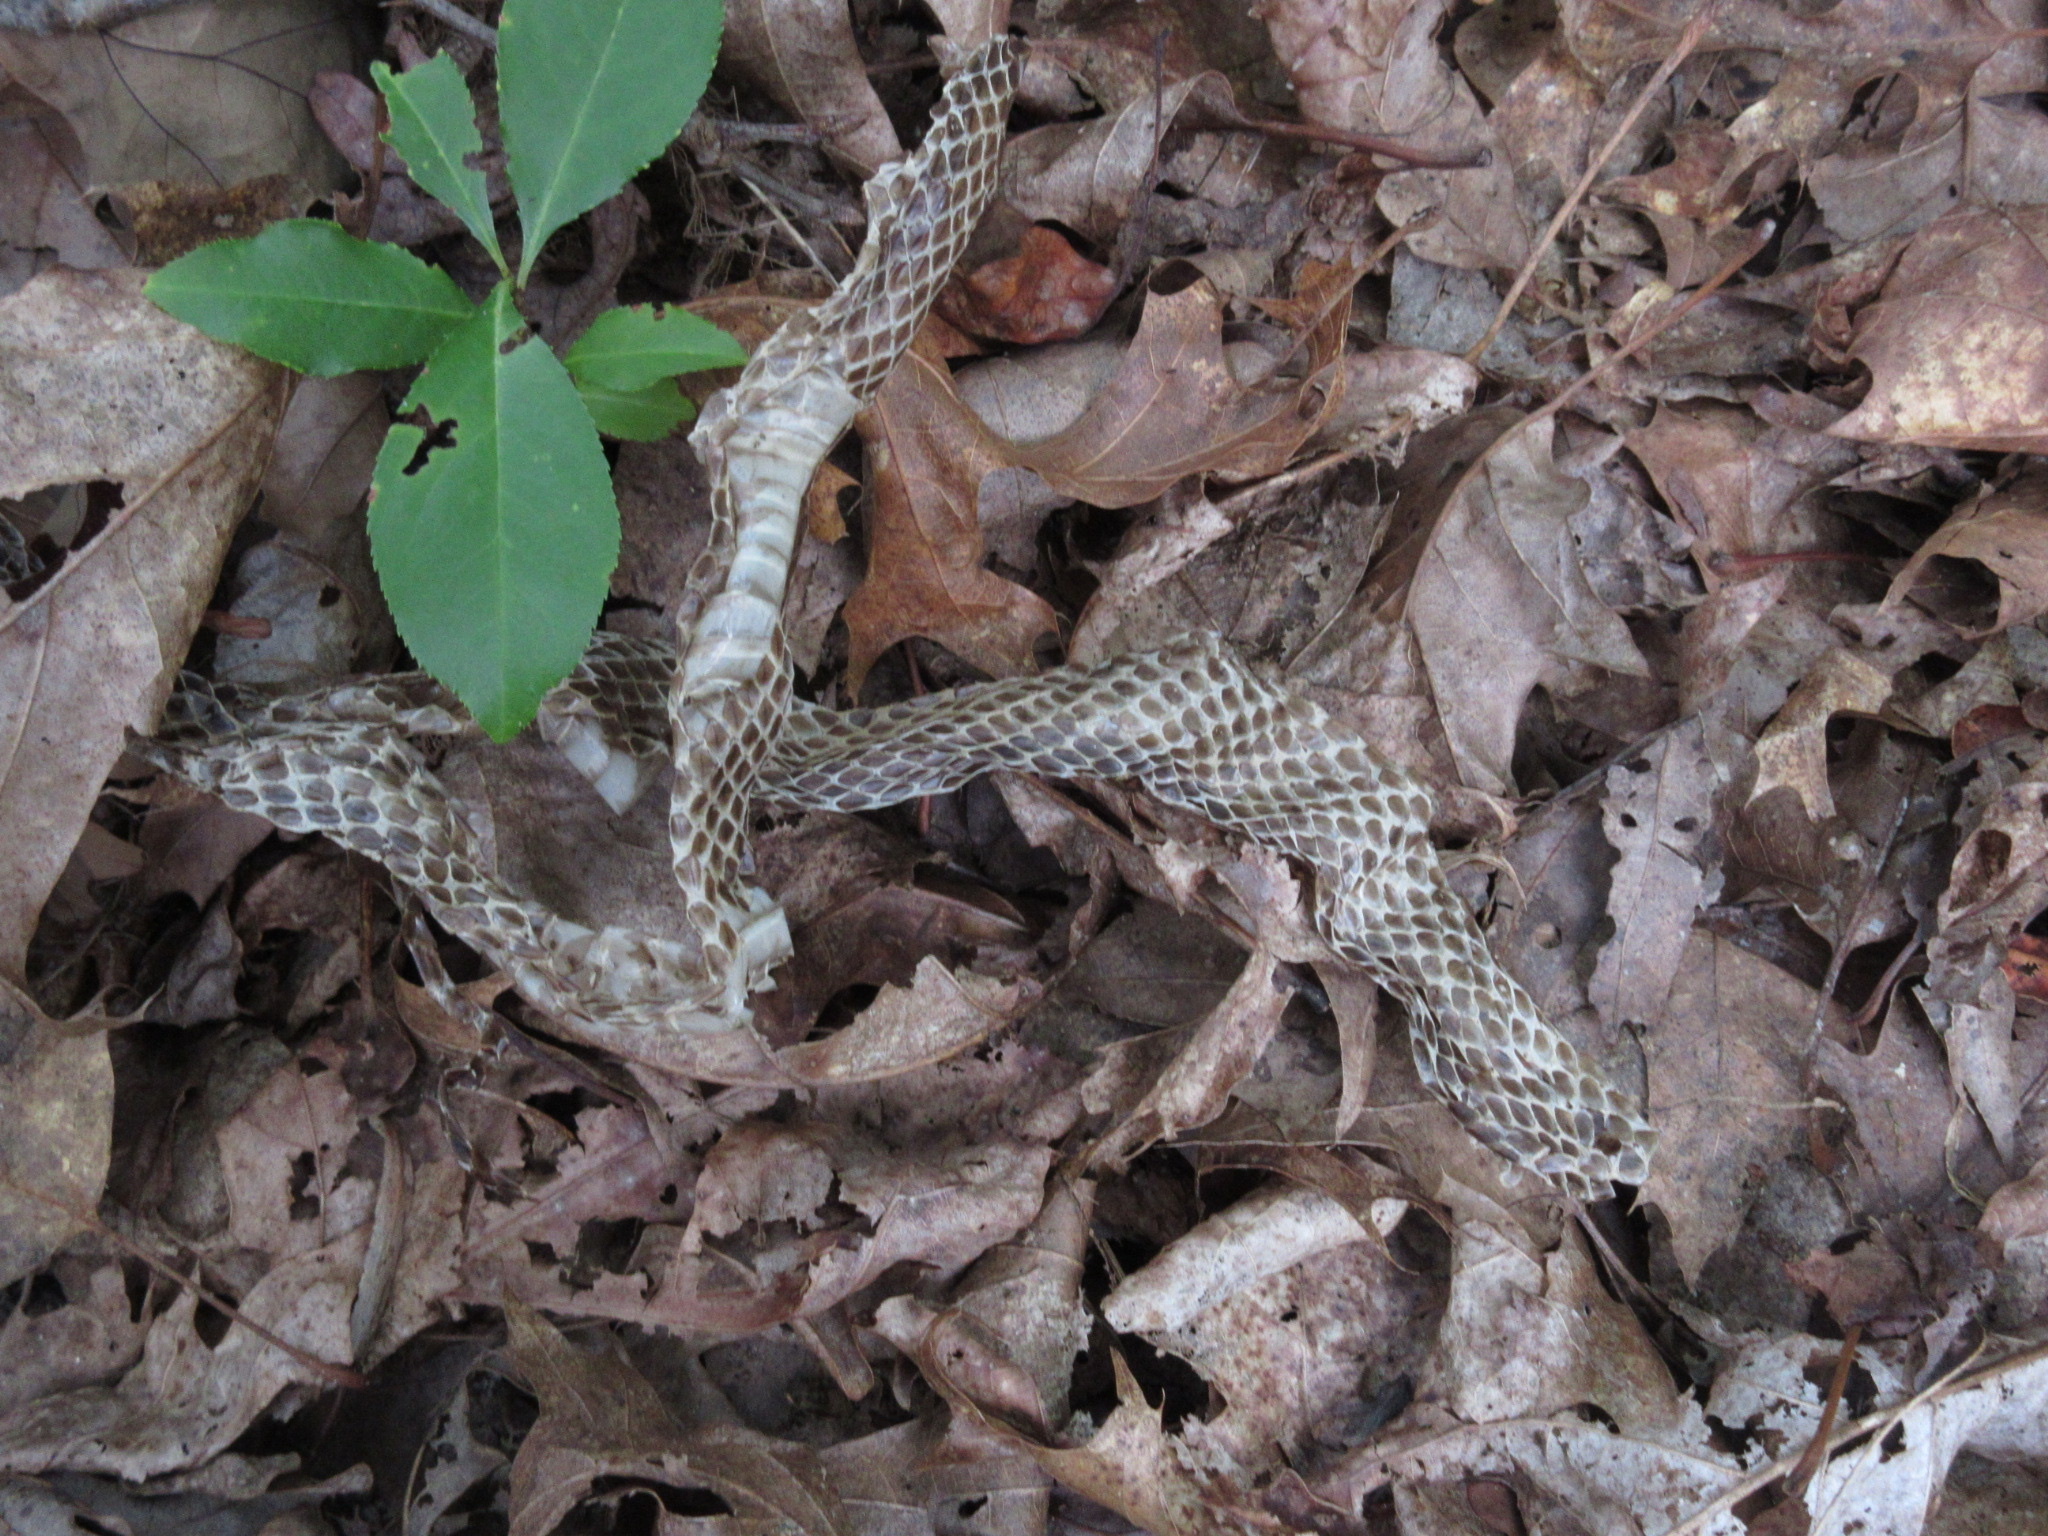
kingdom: Animalia
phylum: Chordata
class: Squamata
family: Colubridae
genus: Pantherophis
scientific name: Pantherophis alleghaniensis
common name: Eastern rat snake
